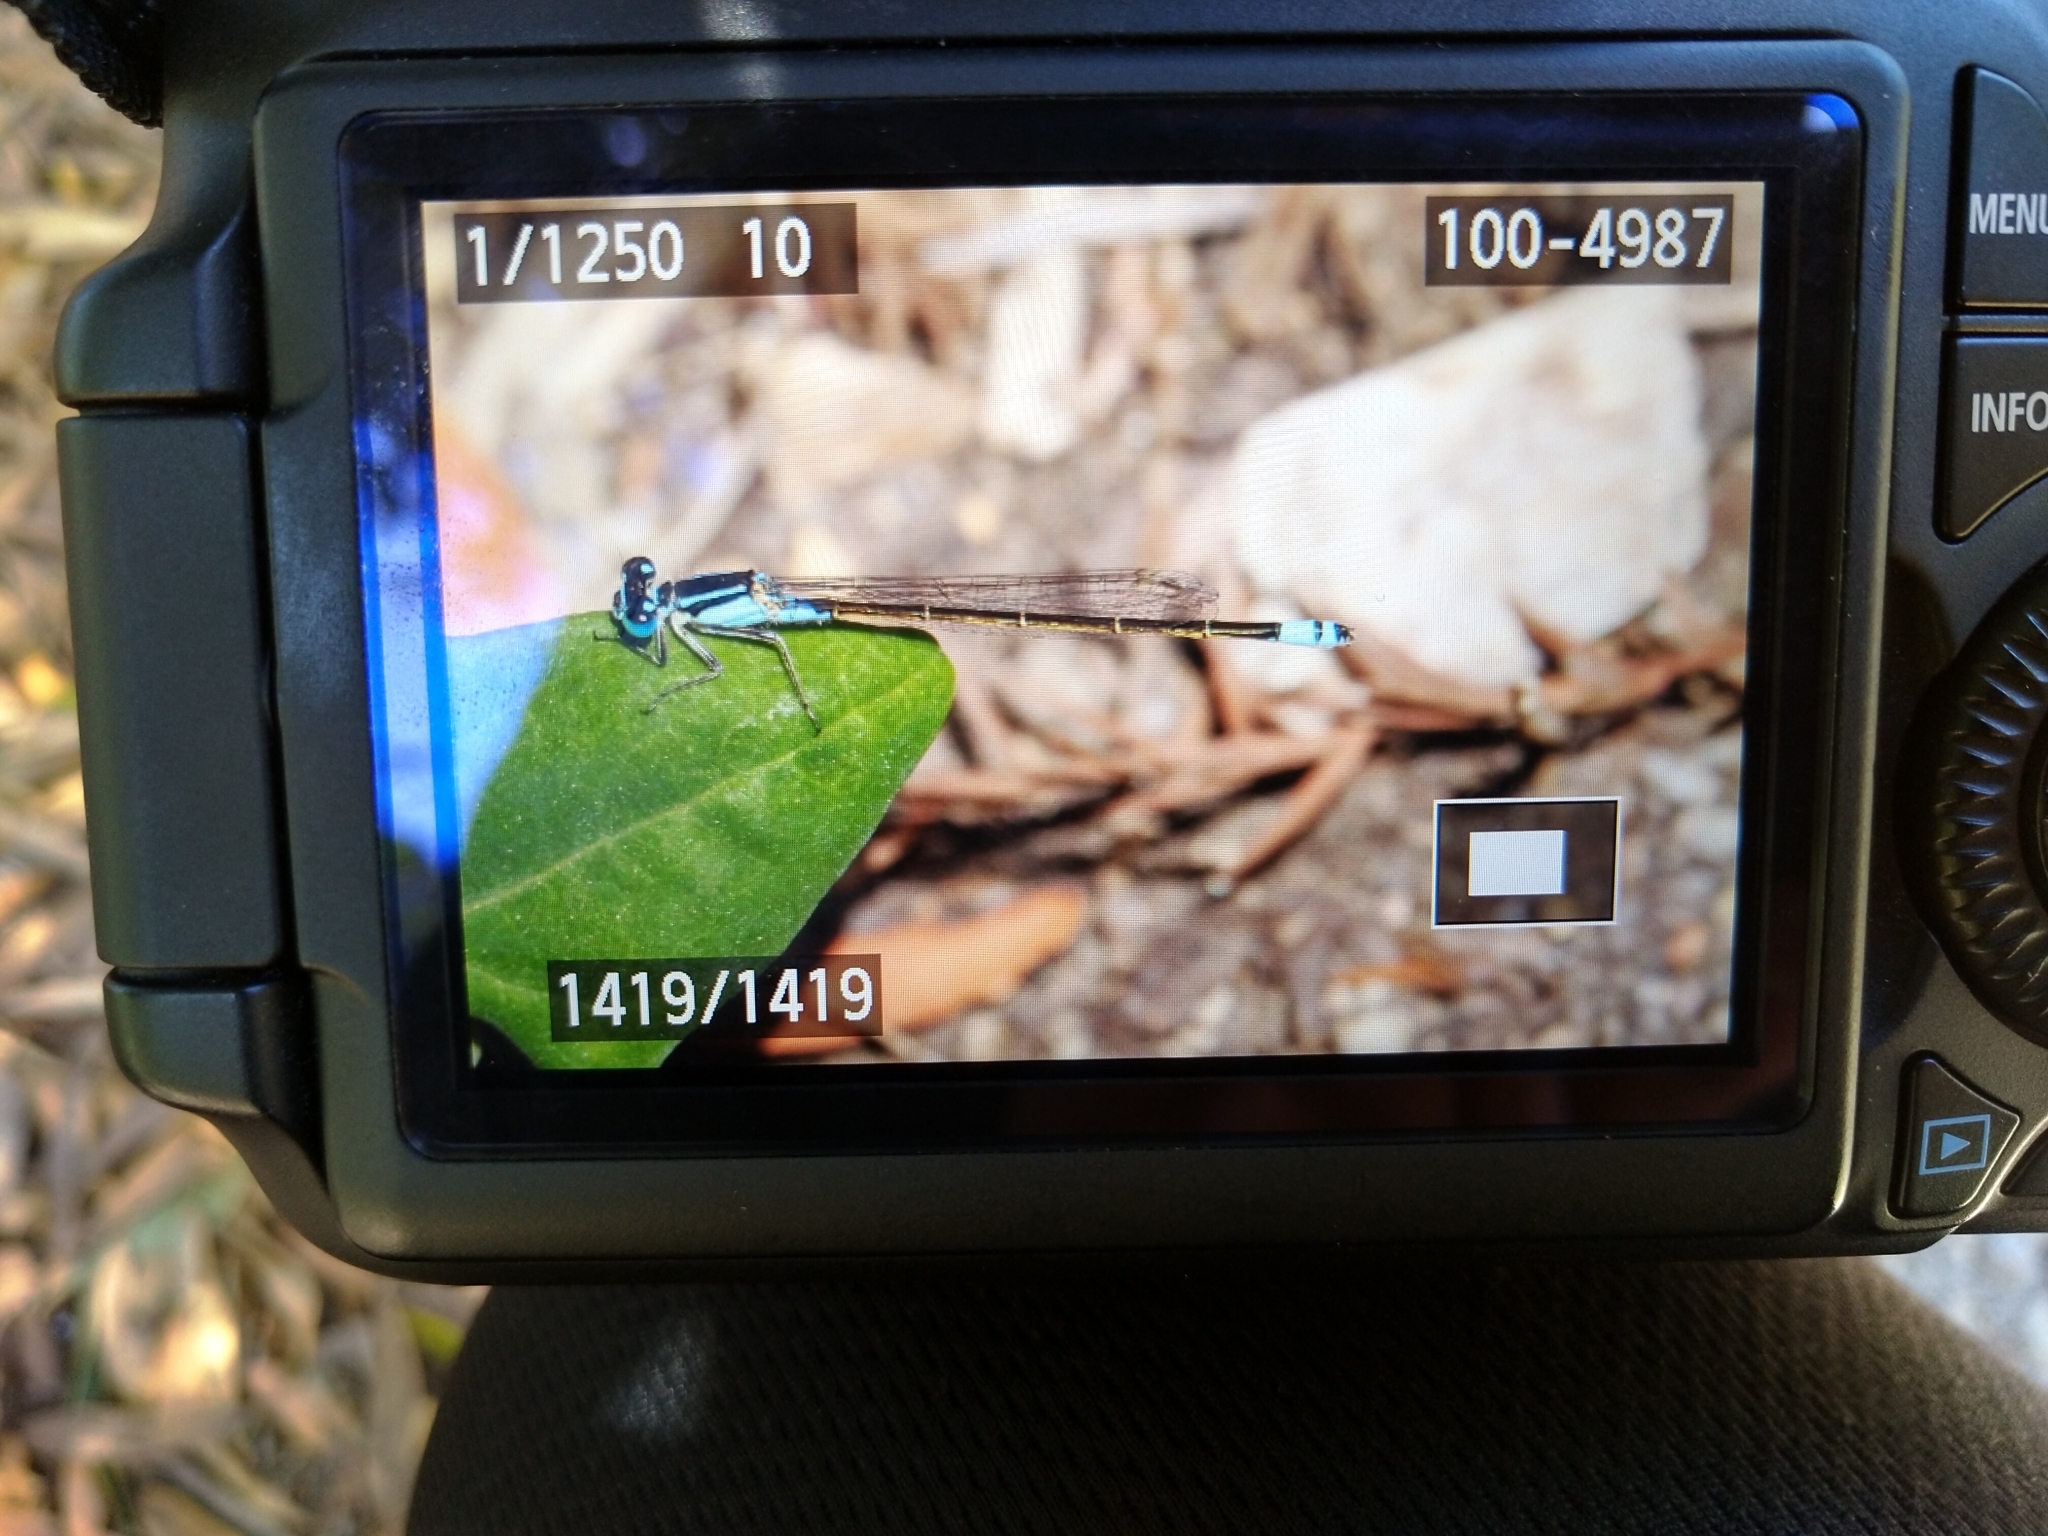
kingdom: Animalia
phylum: Arthropoda
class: Insecta
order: Odonata
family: Coenagrionidae
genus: Ischnura
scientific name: Ischnura heterosticta
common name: Common bluetail
